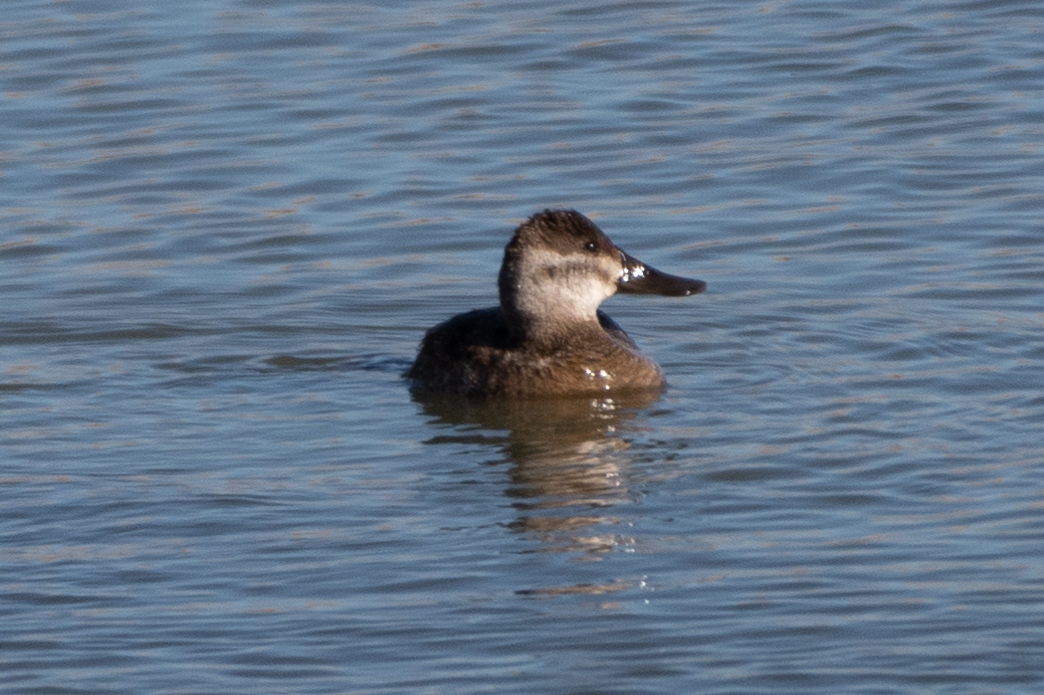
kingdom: Animalia
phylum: Chordata
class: Aves
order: Anseriformes
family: Anatidae
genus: Oxyura
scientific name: Oxyura jamaicensis
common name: Ruddy duck
